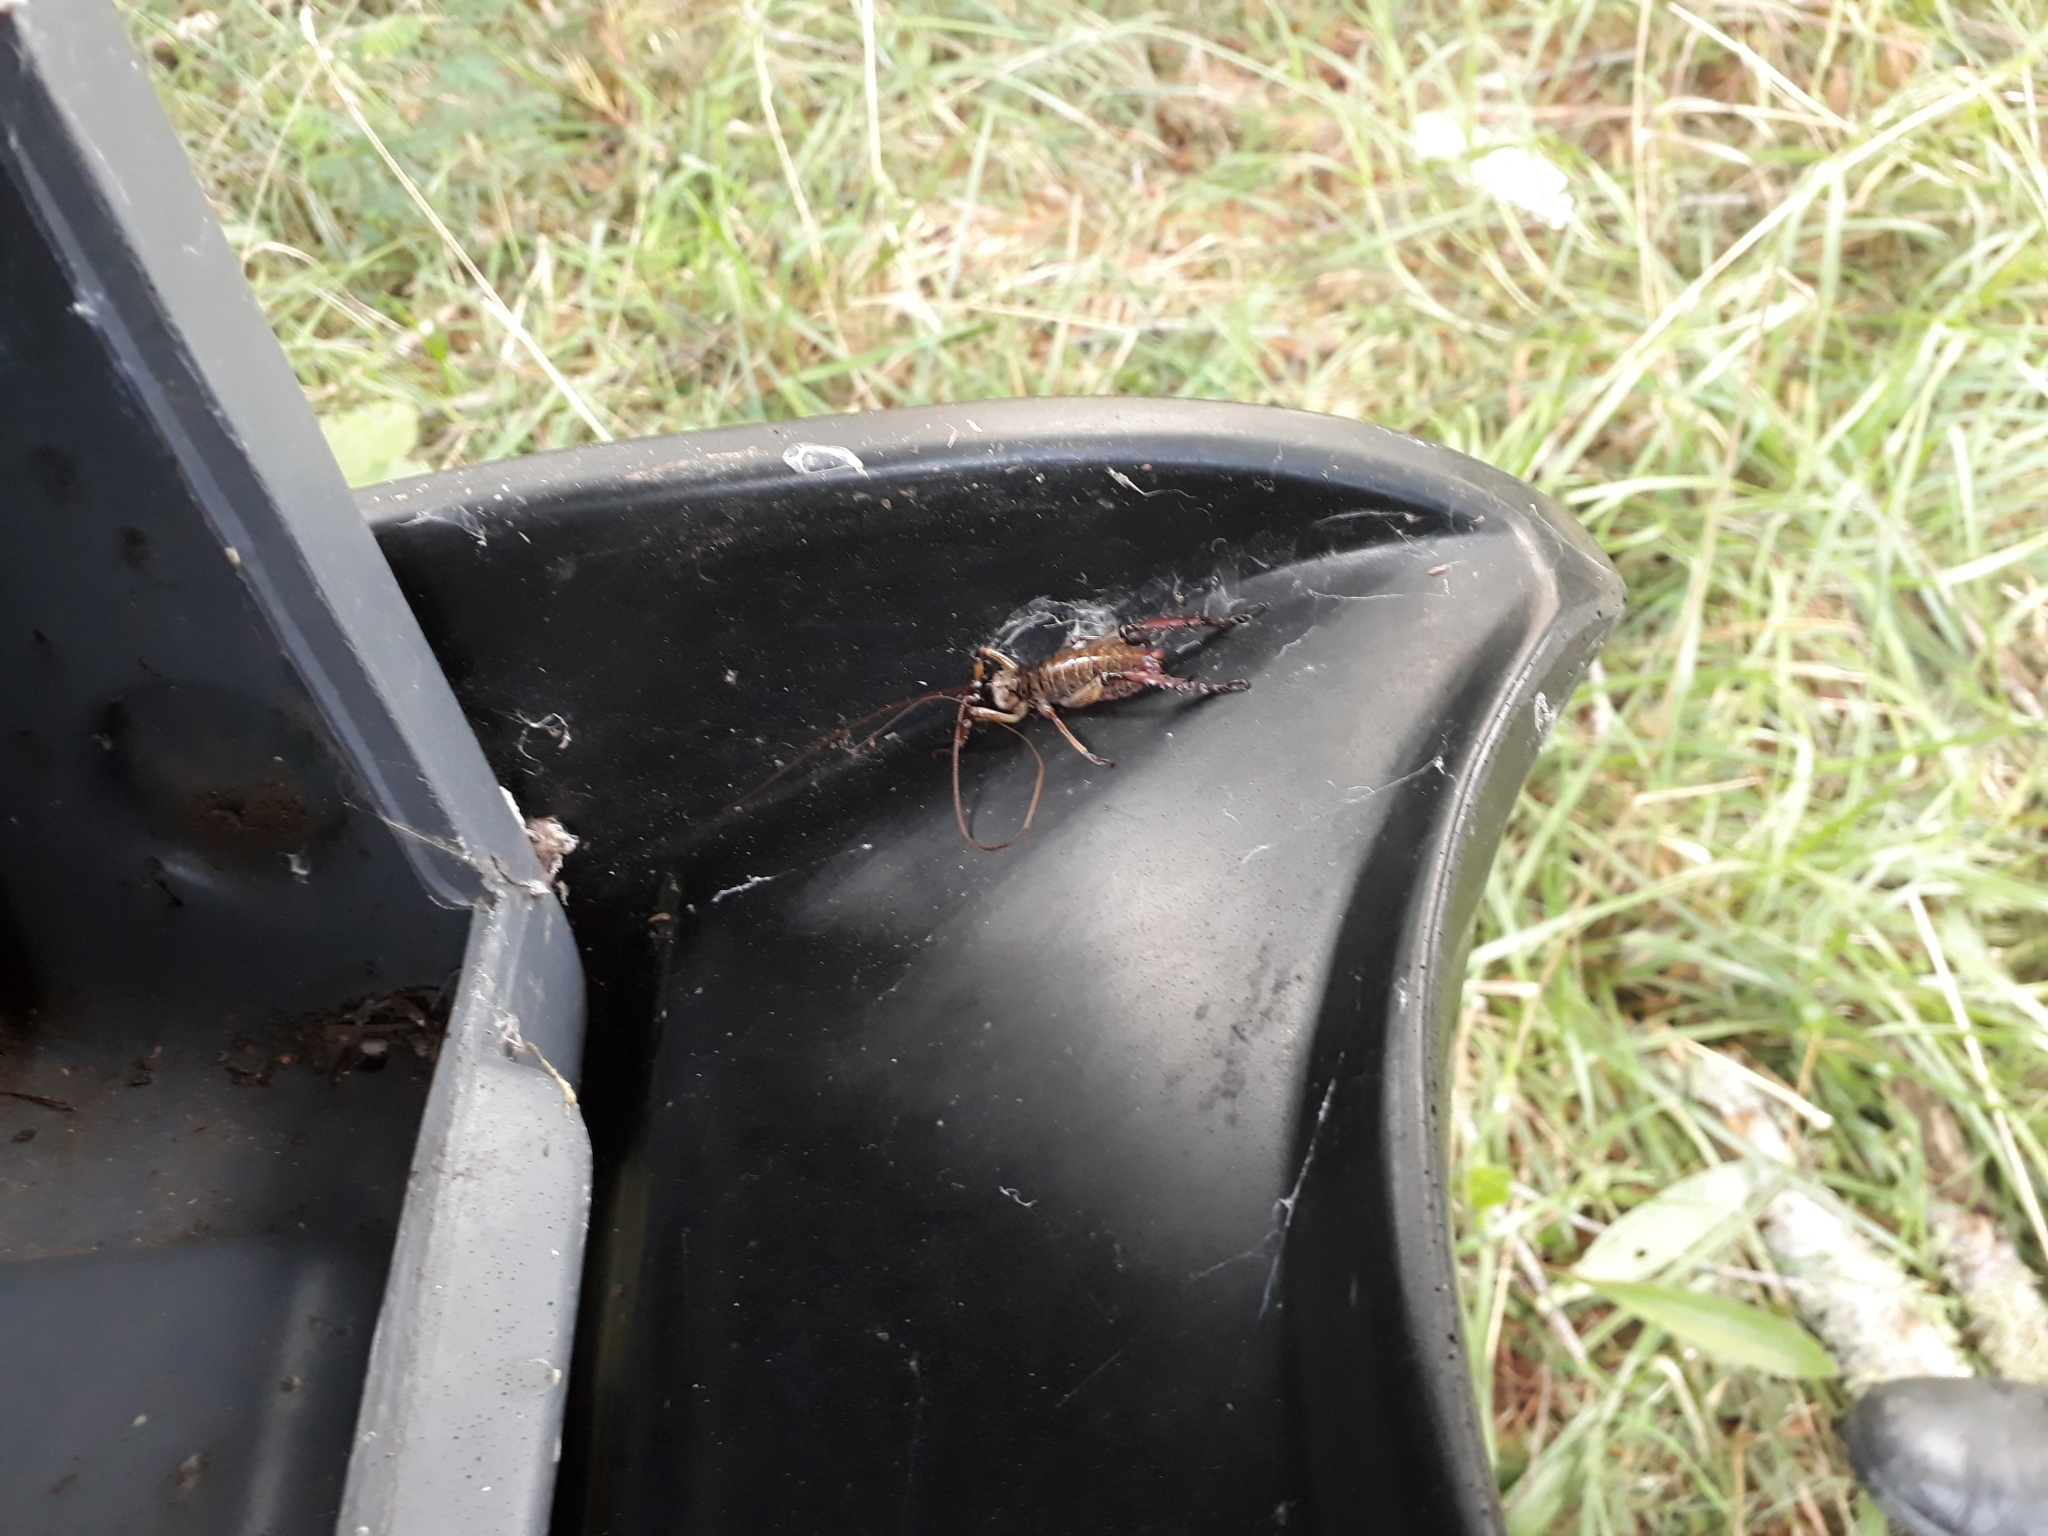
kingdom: Animalia
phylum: Arthropoda
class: Insecta
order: Orthoptera
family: Anostostomatidae
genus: Hemideina
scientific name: Hemideina thoracica
